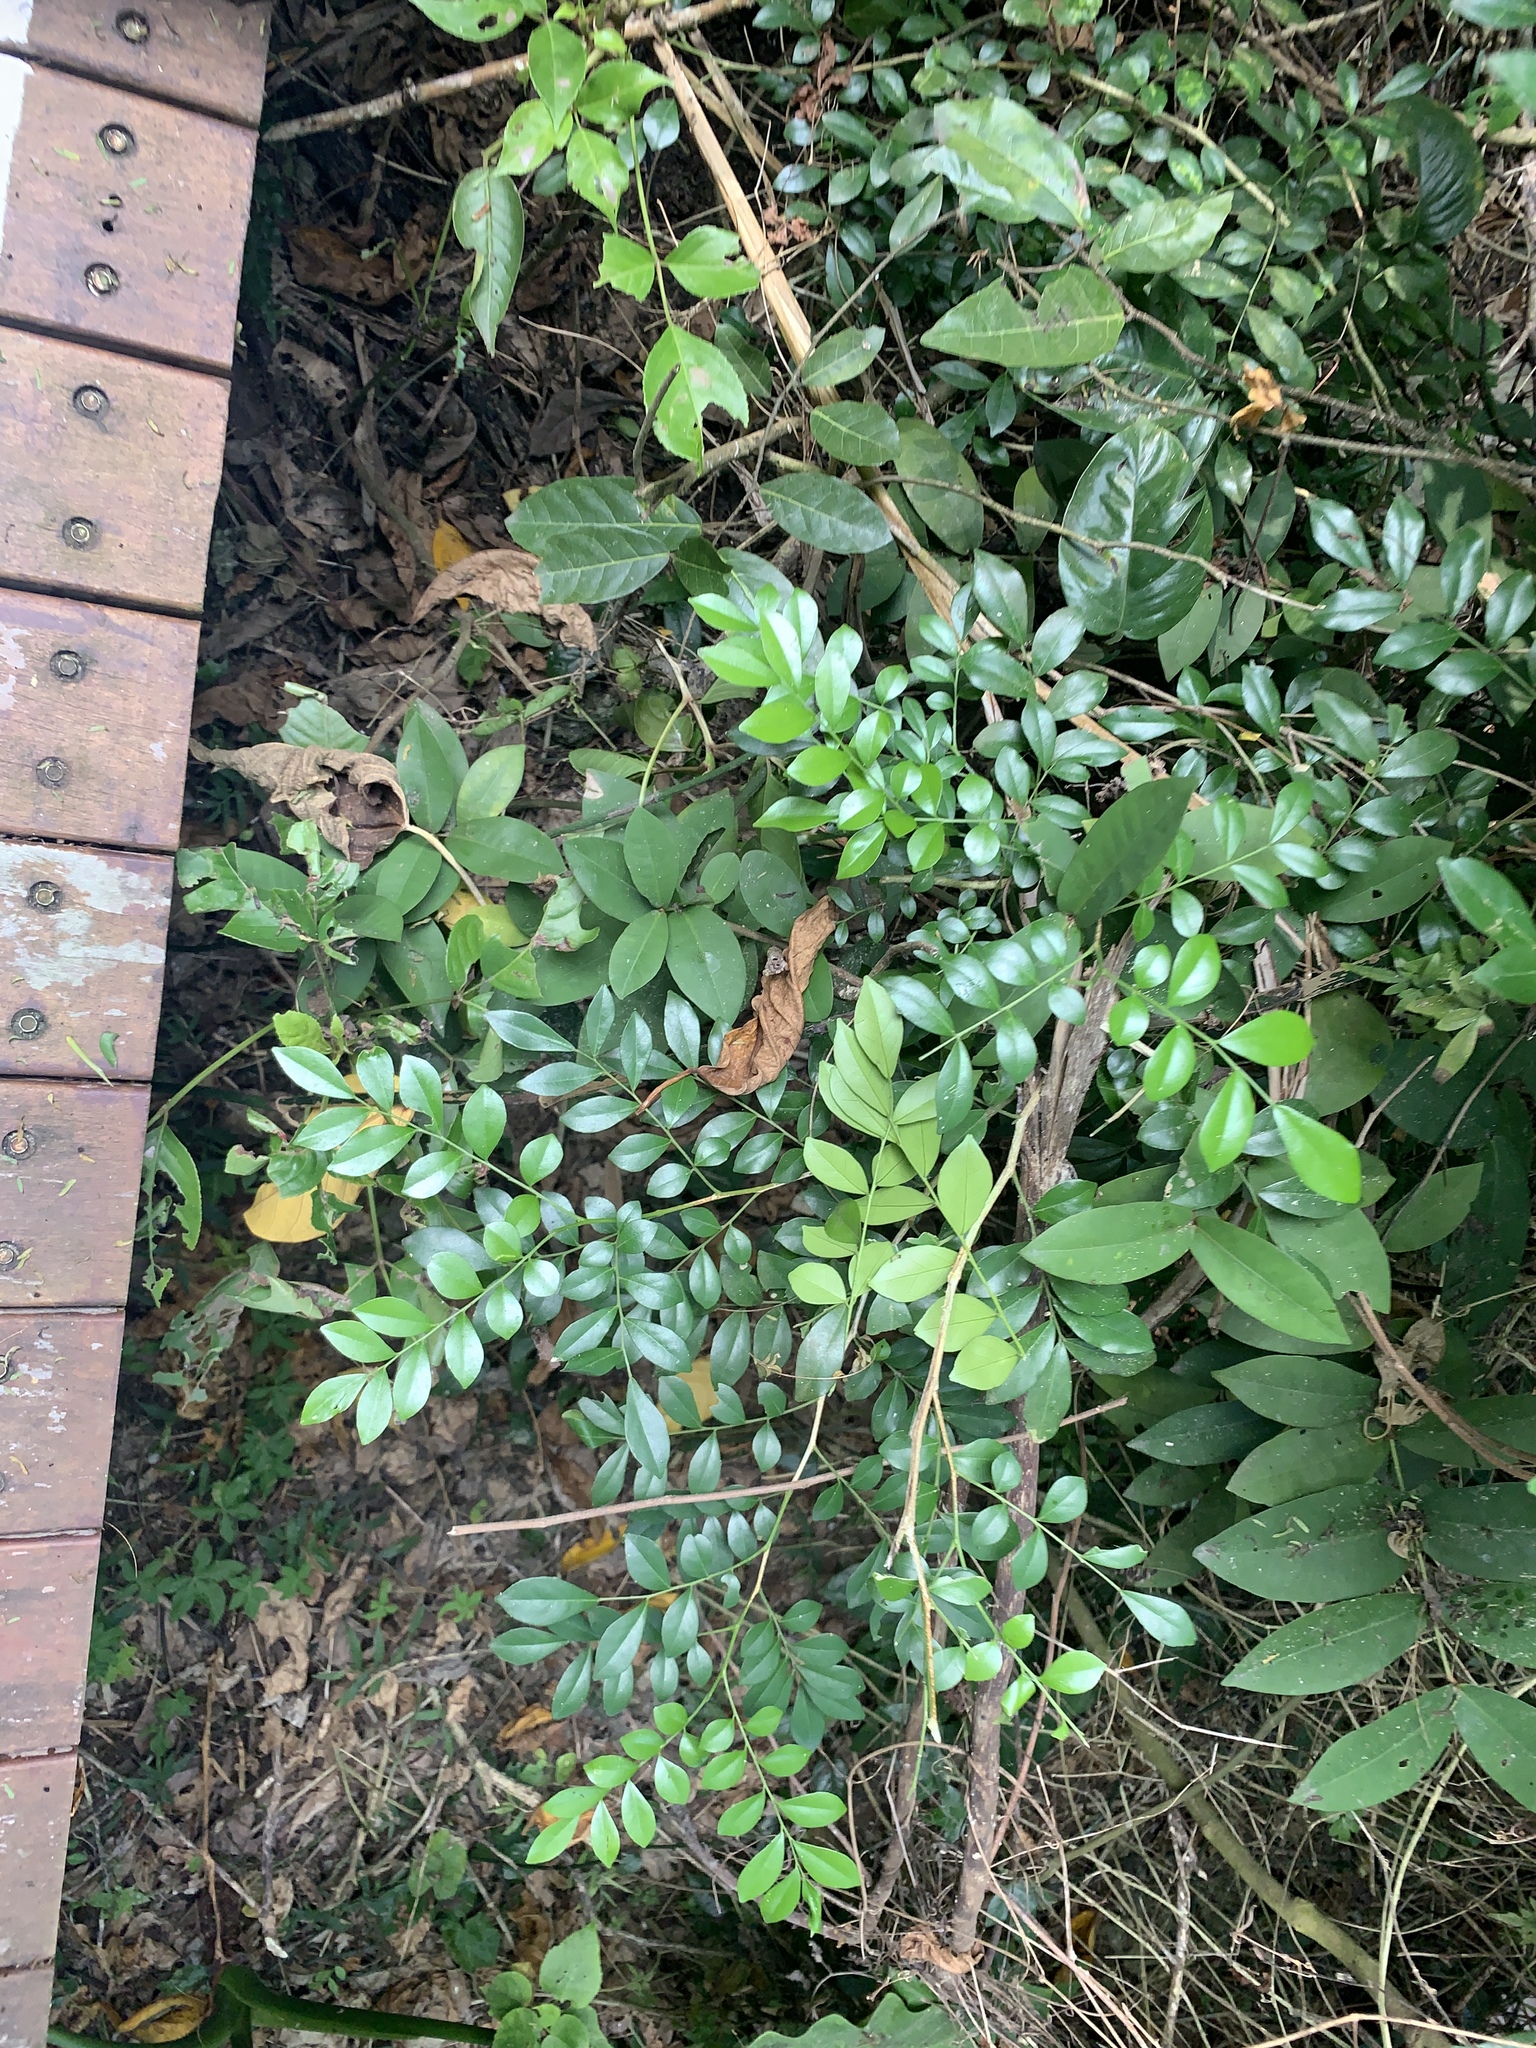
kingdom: Plantae
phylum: Tracheophyta
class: Magnoliopsida
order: Sapindales
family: Rutaceae
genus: Murraya
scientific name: Murraya paniculata
